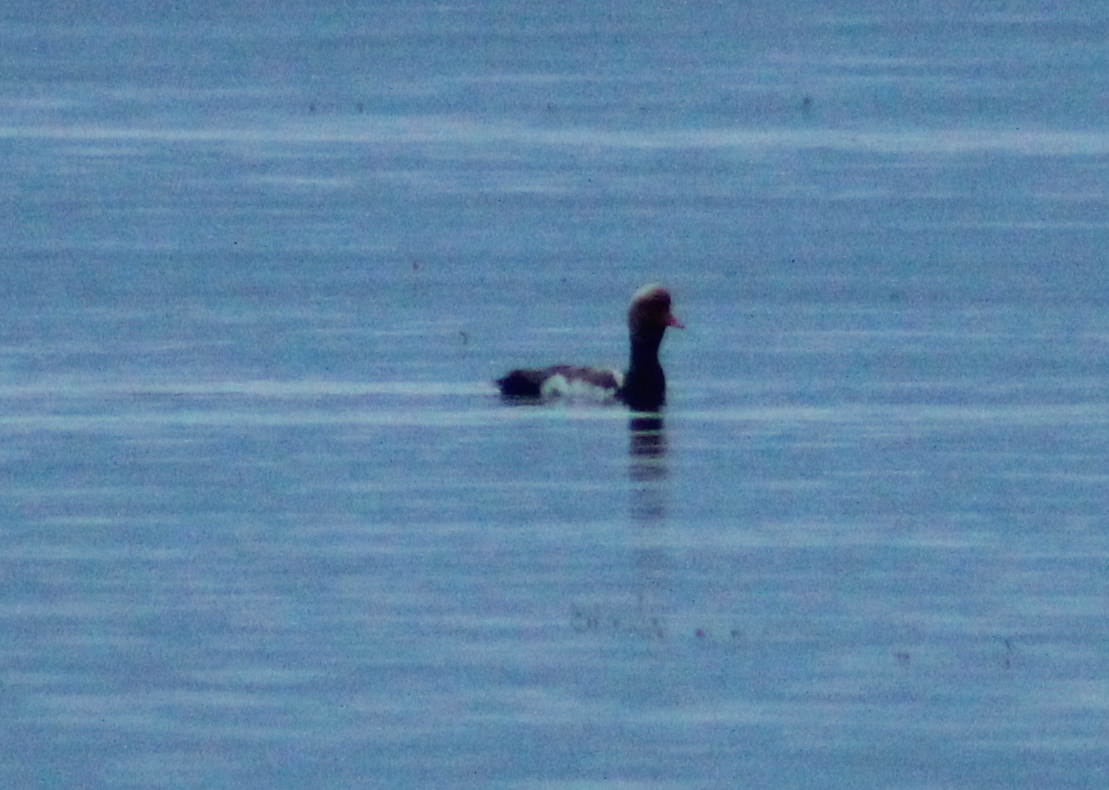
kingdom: Animalia
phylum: Chordata
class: Aves
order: Anseriformes
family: Anatidae
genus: Netta
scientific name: Netta rufina
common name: Red-crested pochard
